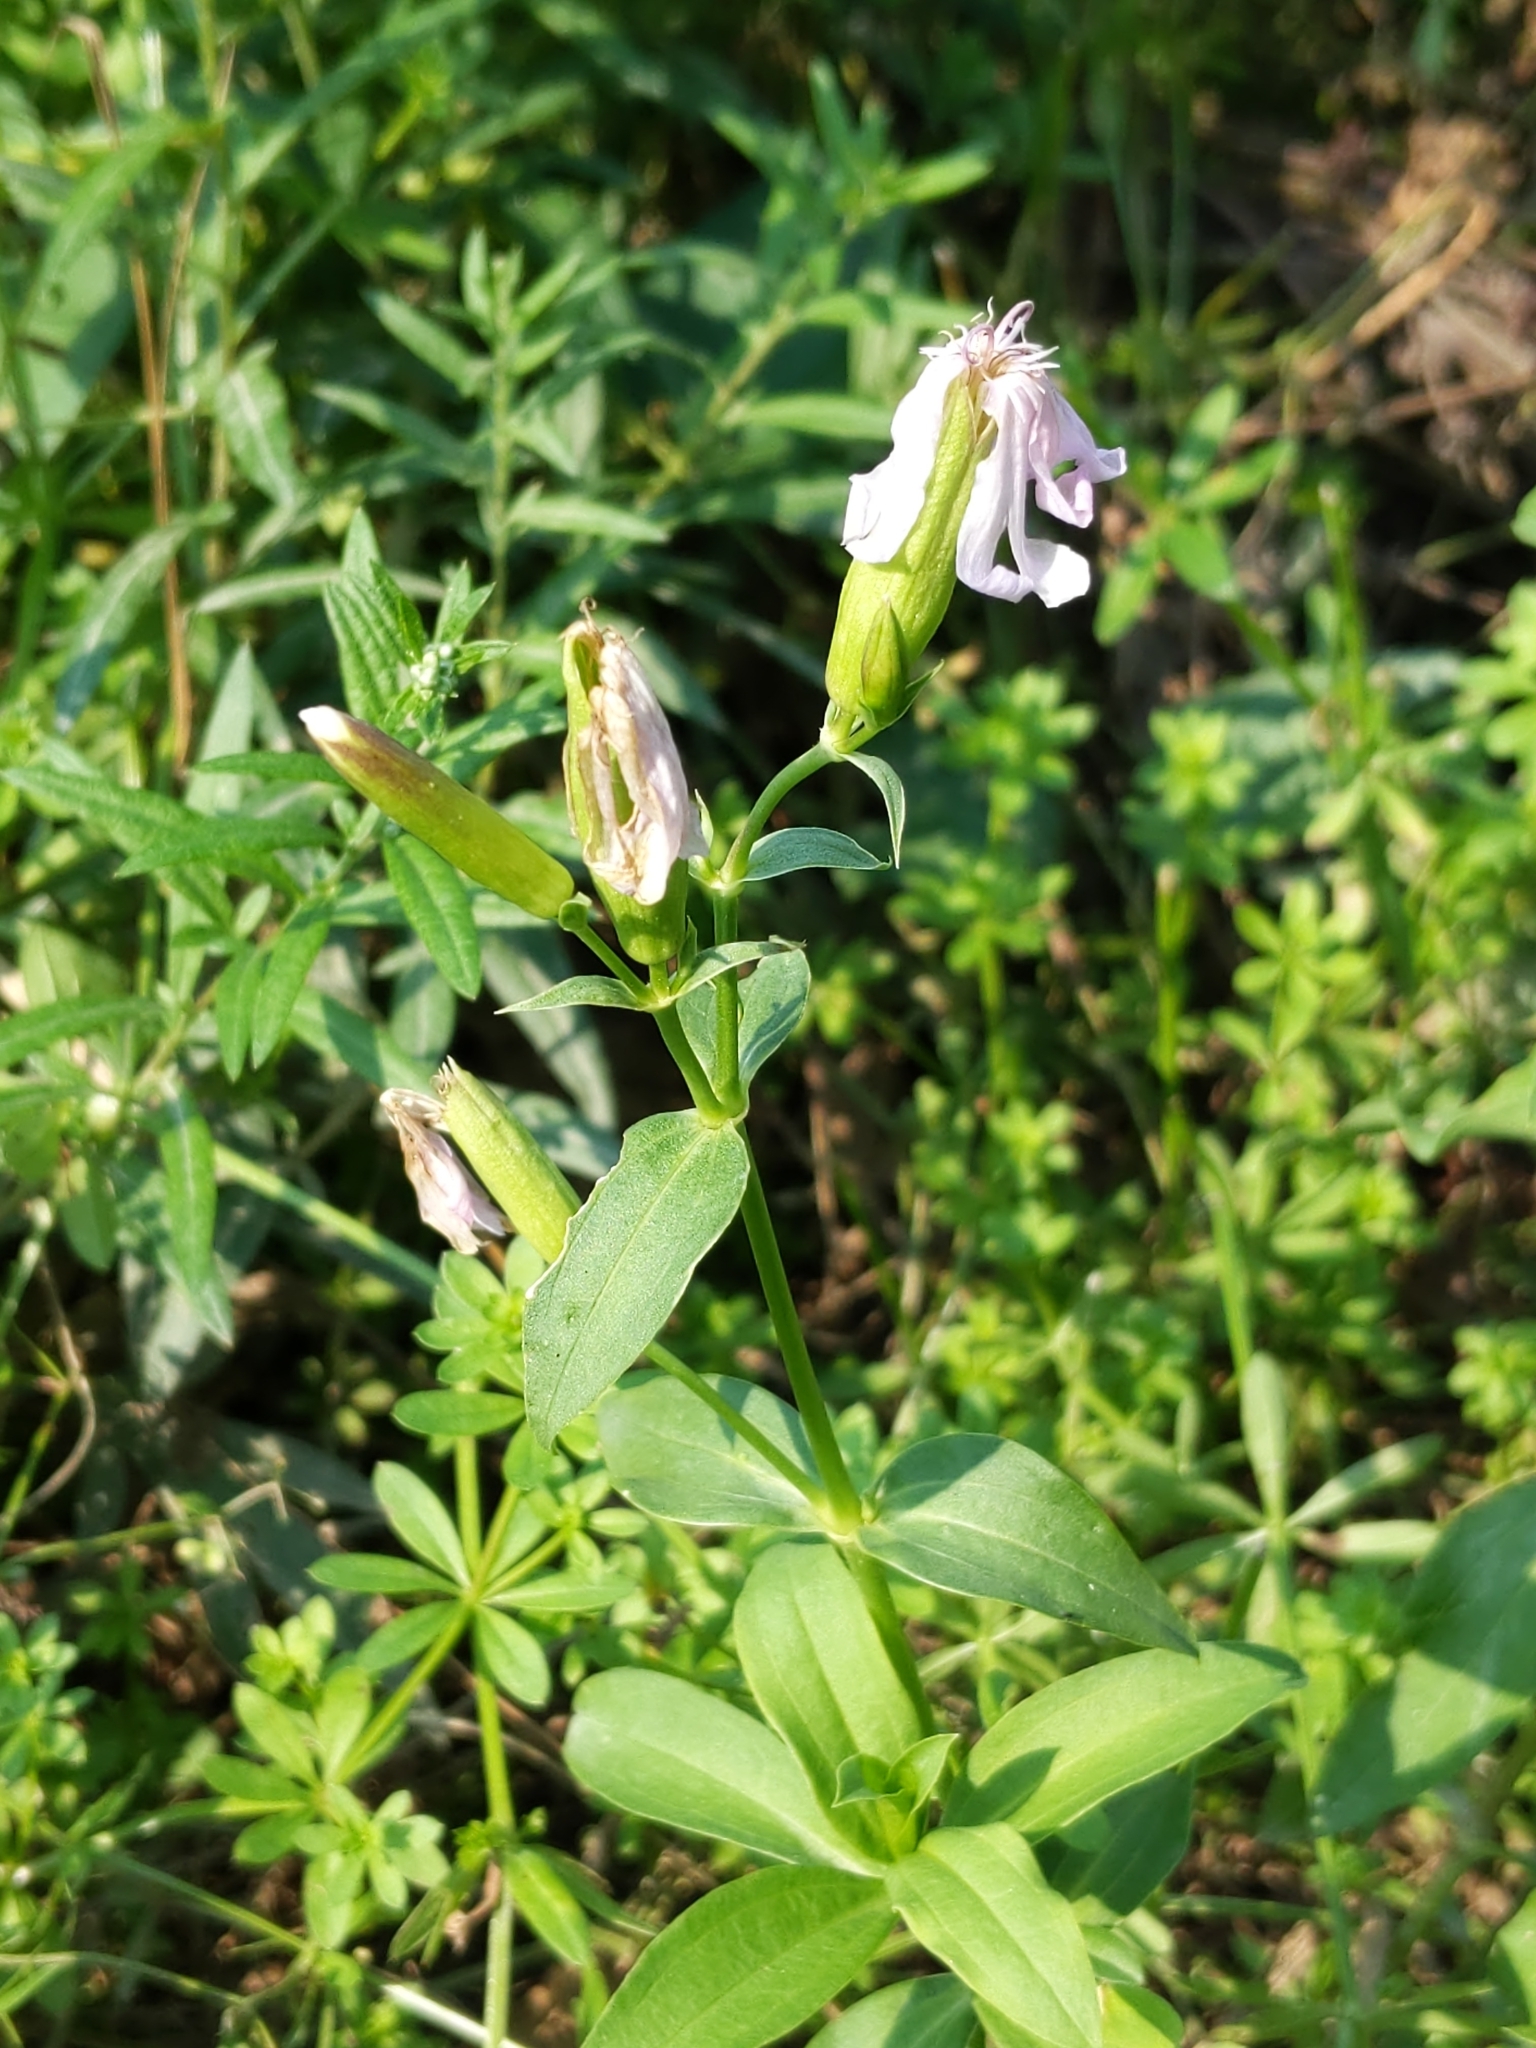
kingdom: Plantae
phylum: Tracheophyta
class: Magnoliopsida
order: Caryophyllales
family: Caryophyllaceae
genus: Saponaria
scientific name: Saponaria officinalis
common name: Soapwort
